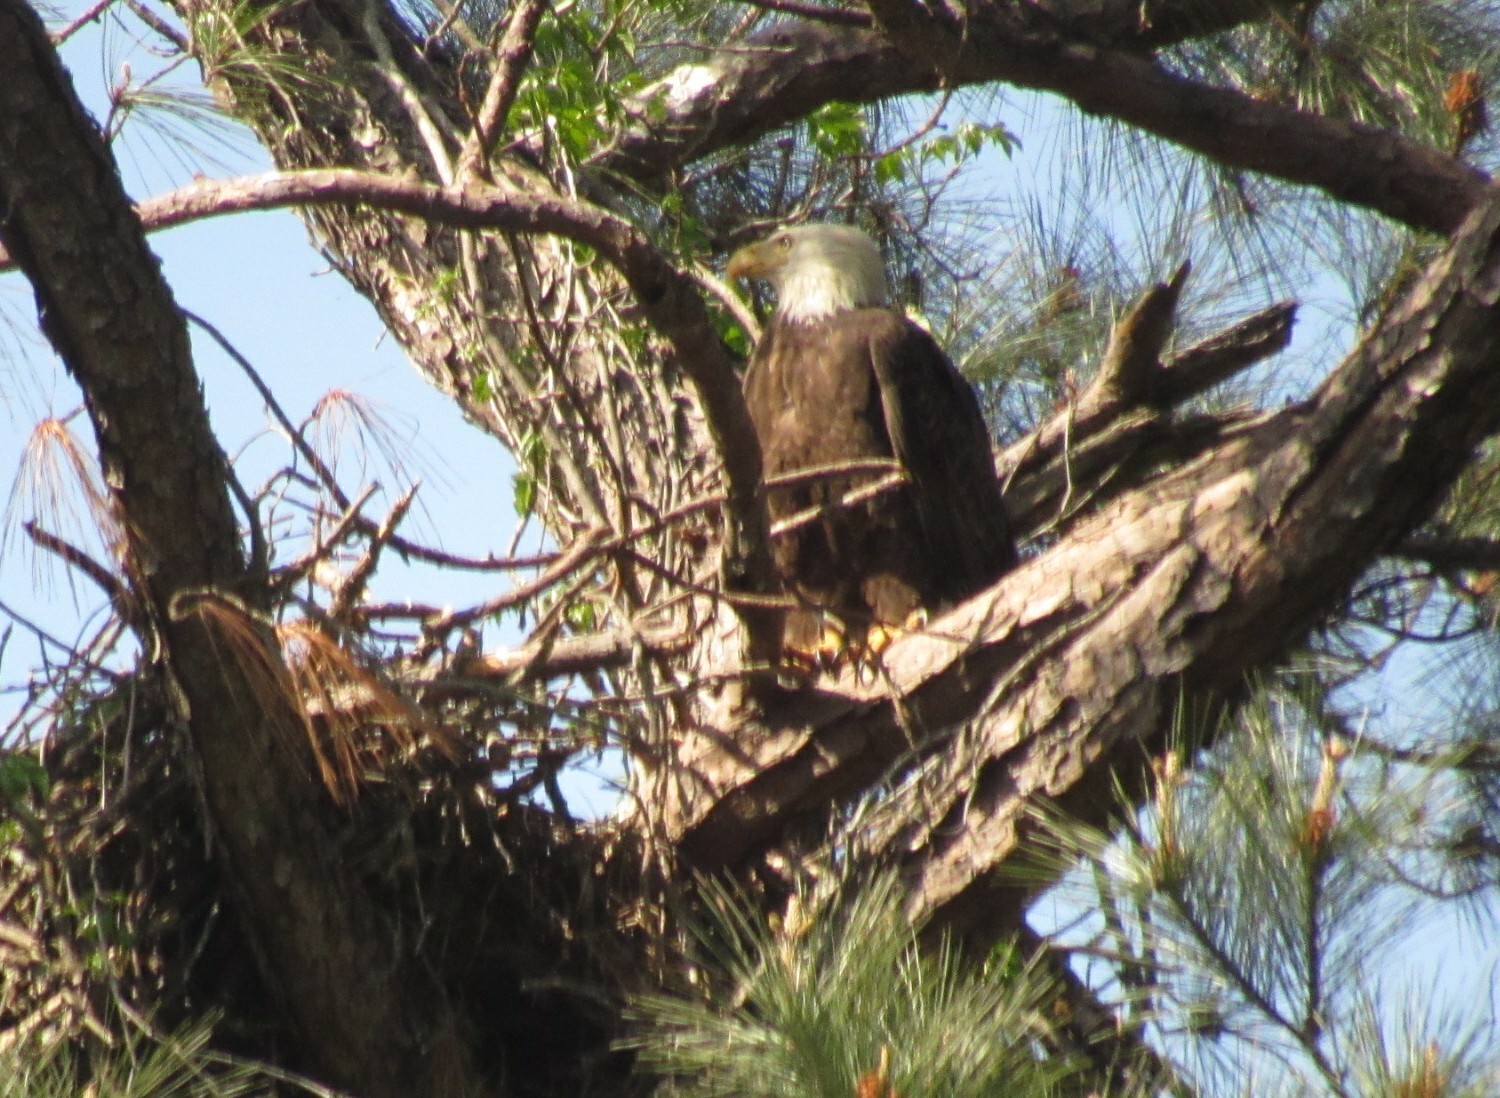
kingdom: Animalia
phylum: Chordata
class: Aves
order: Accipitriformes
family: Accipitridae
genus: Haliaeetus
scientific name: Haliaeetus leucocephalus
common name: Bald eagle
